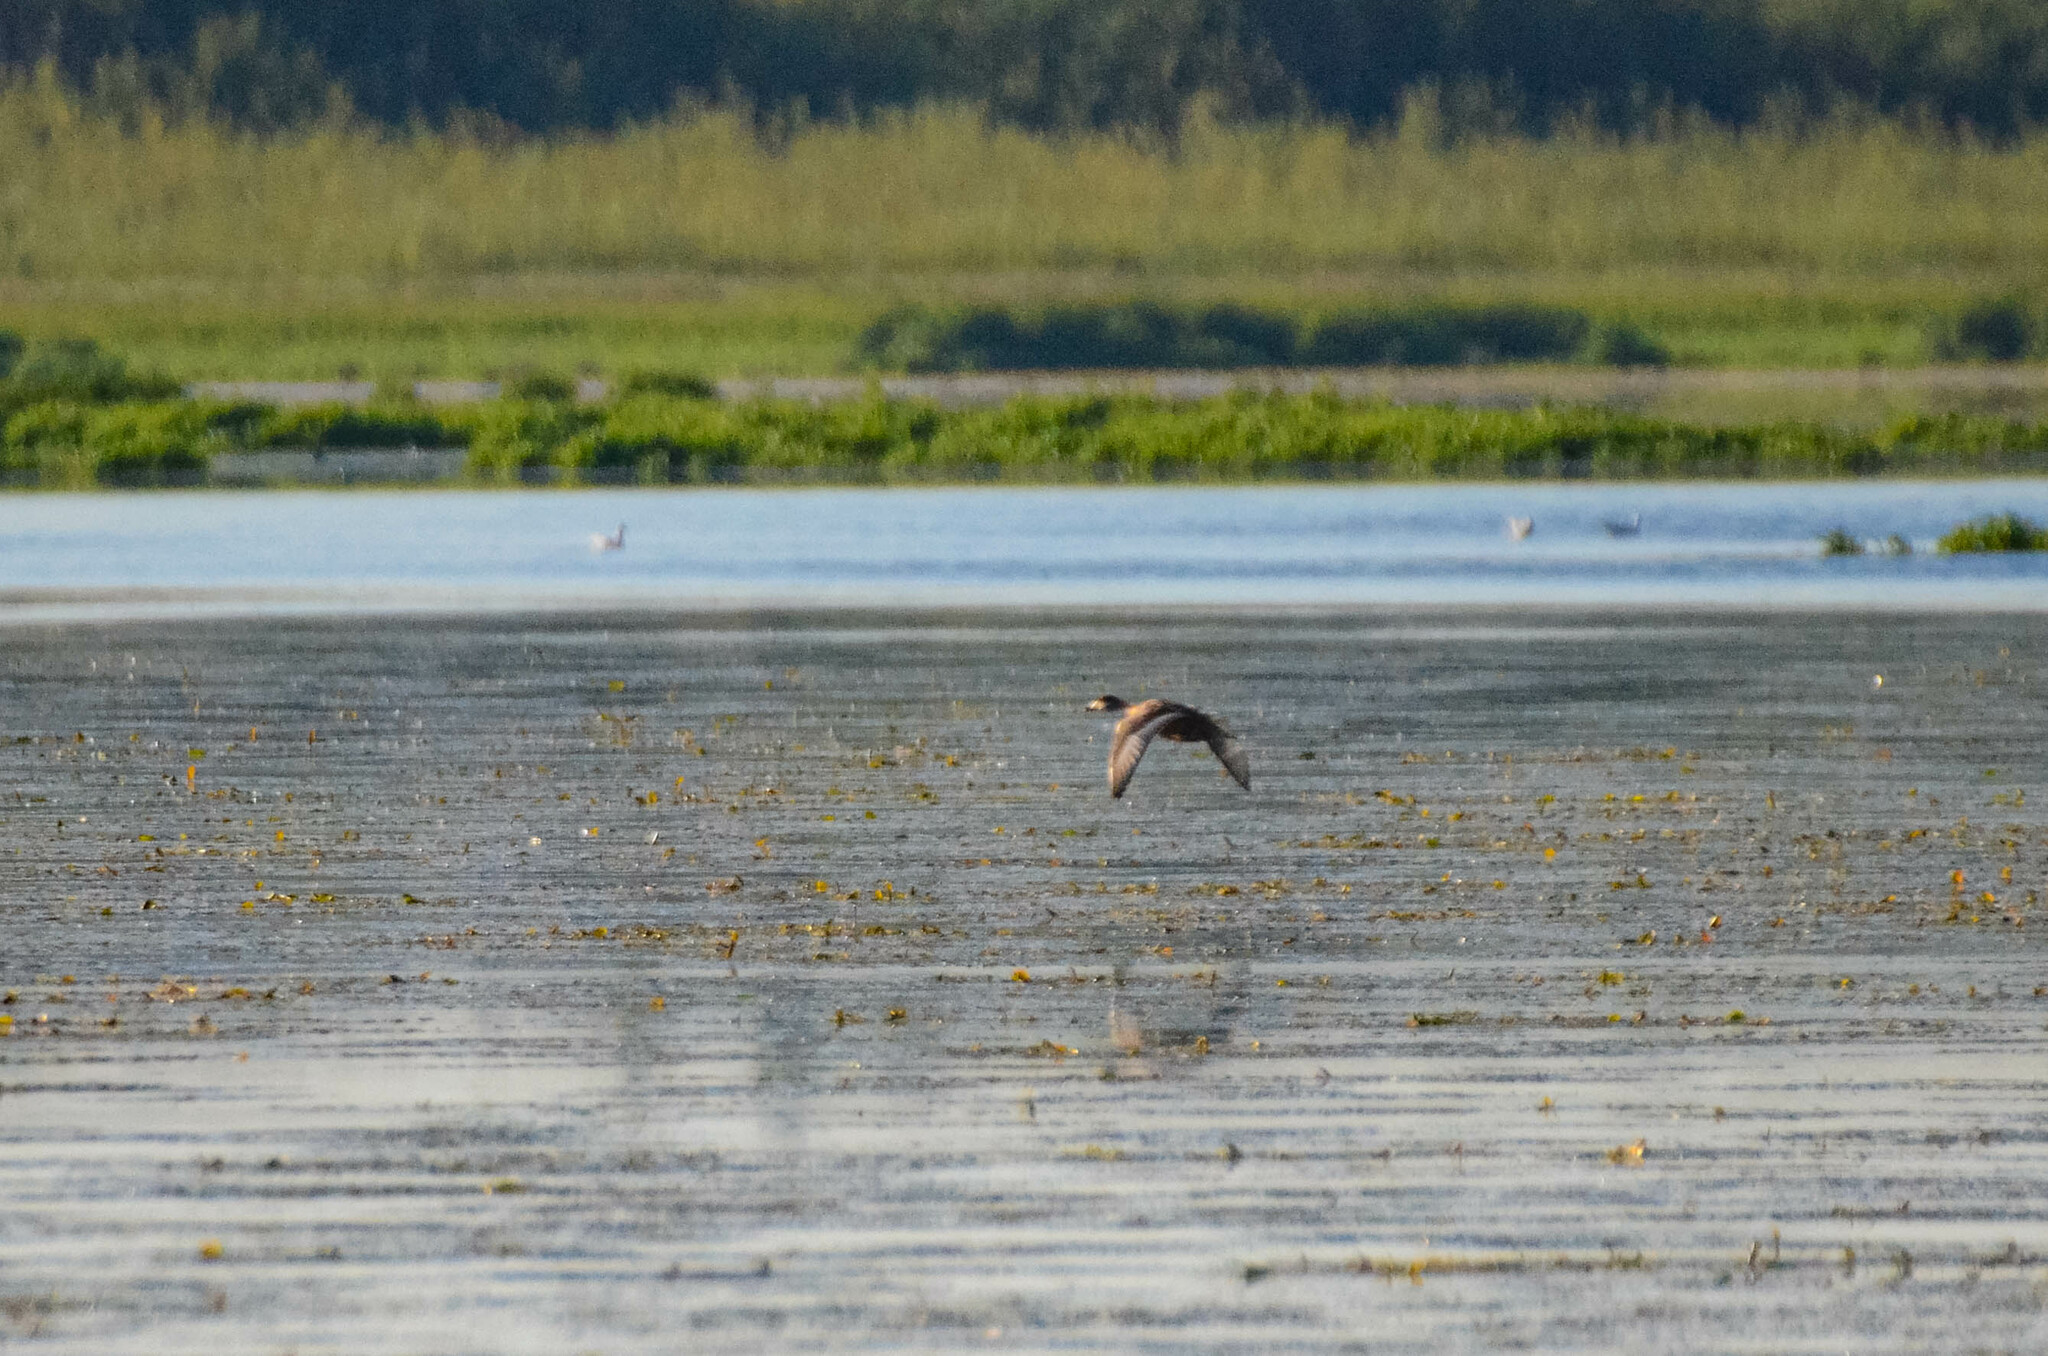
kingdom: Animalia
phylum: Chordata
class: Aves
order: Anseriformes
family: Anatidae
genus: Aythya
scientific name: Aythya ferina
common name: Common pochard
